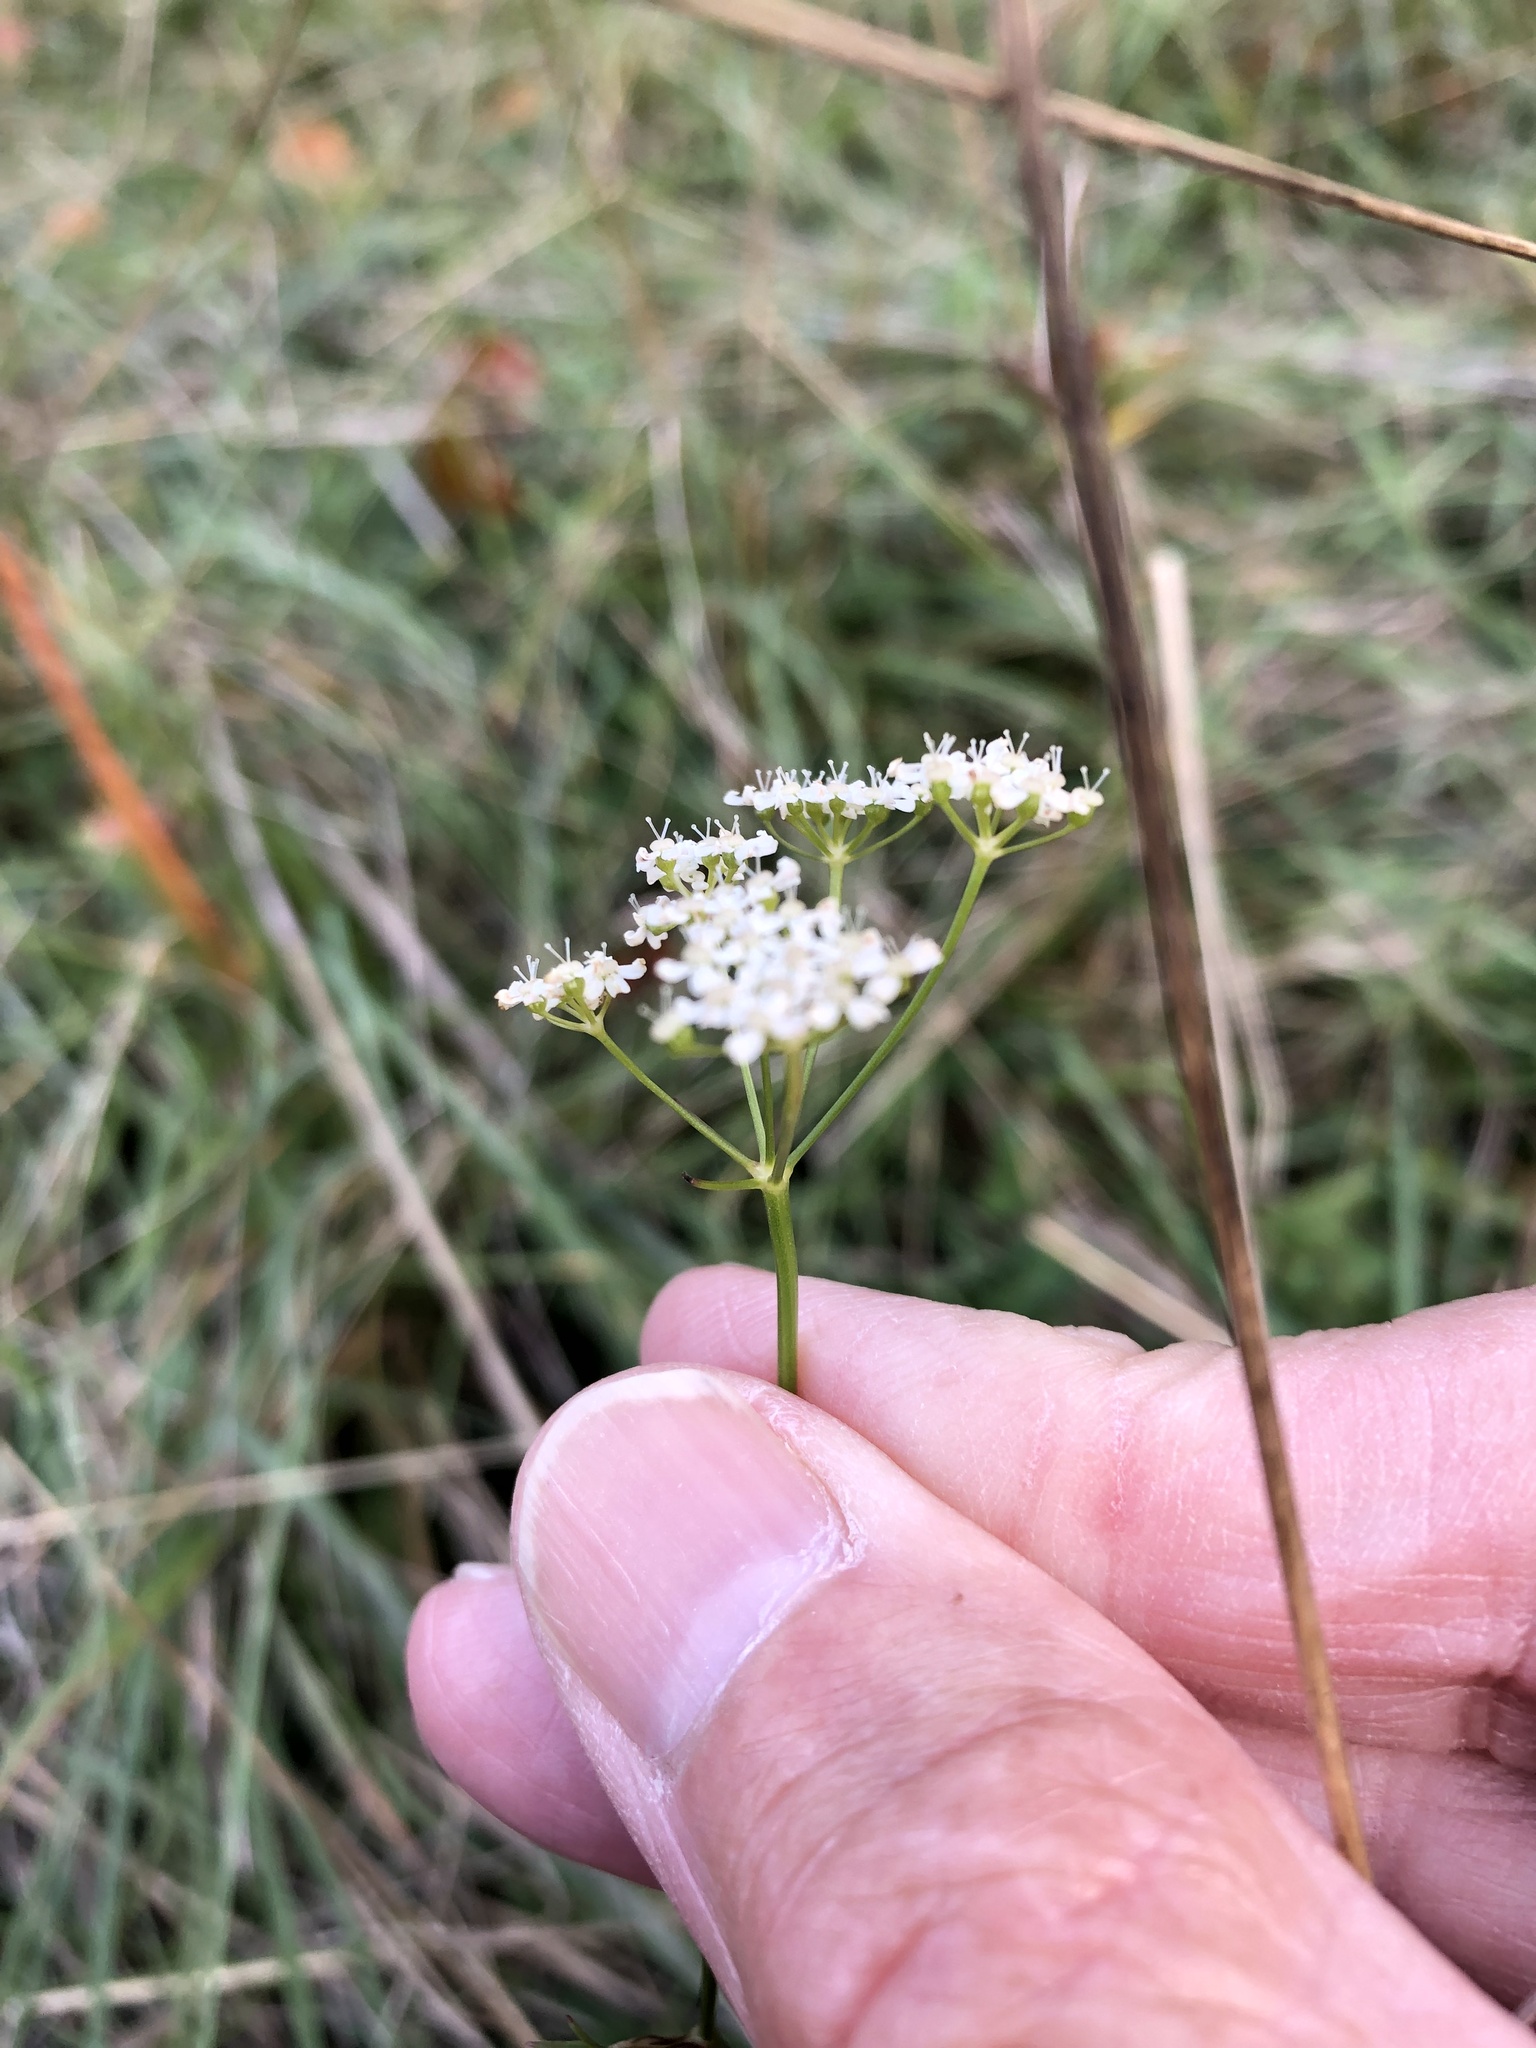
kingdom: Plantae
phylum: Tracheophyta
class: Magnoliopsida
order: Apiales
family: Apiaceae
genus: Pimpinella
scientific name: Pimpinella saxifraga
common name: Burnet-saxifrage
